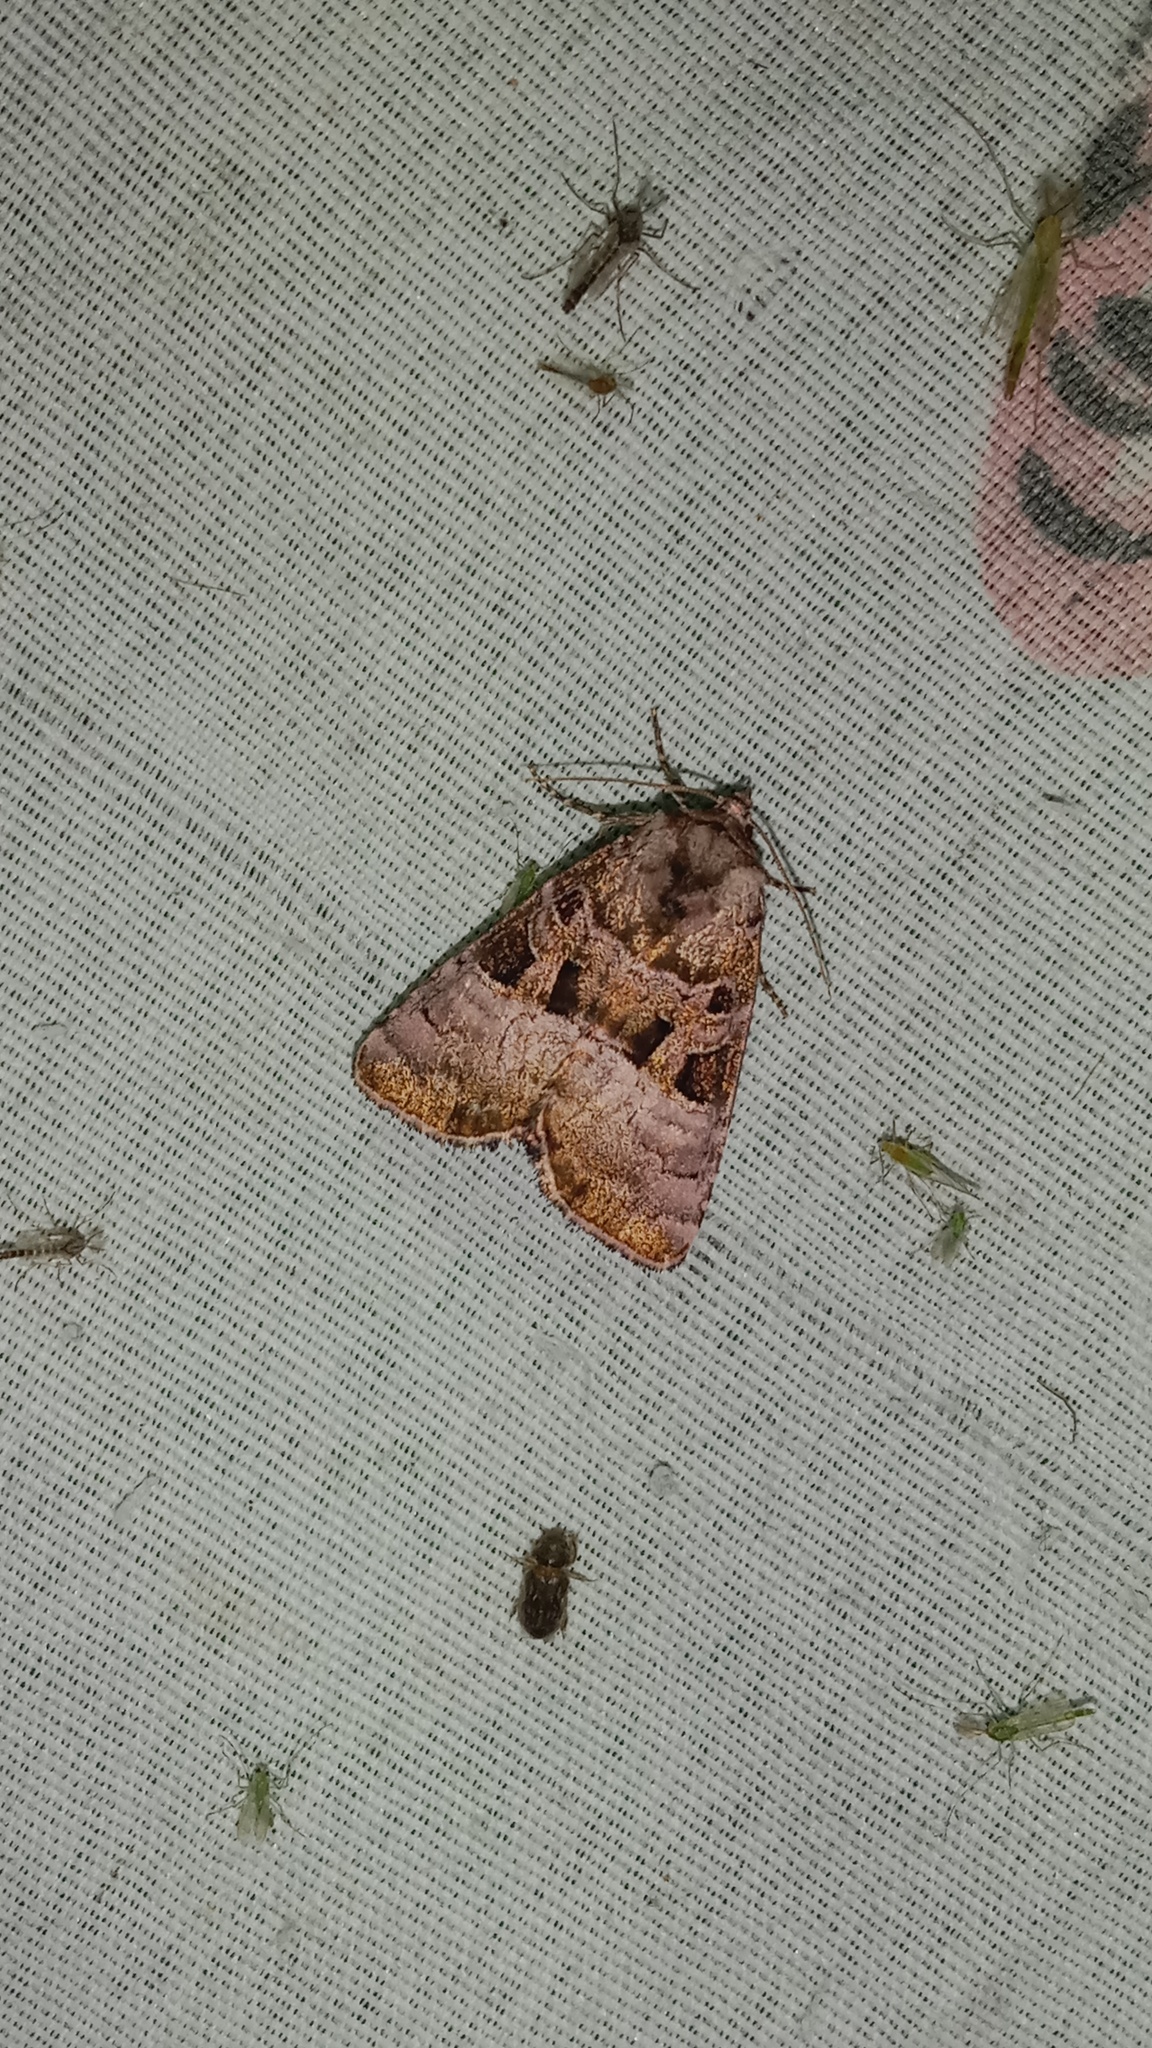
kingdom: Animalia
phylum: Arthropoda
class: Insecta
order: Lepidoptera
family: Noctuidae
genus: Eucarta
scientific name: Eucarta amethystina
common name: Cumberland green
